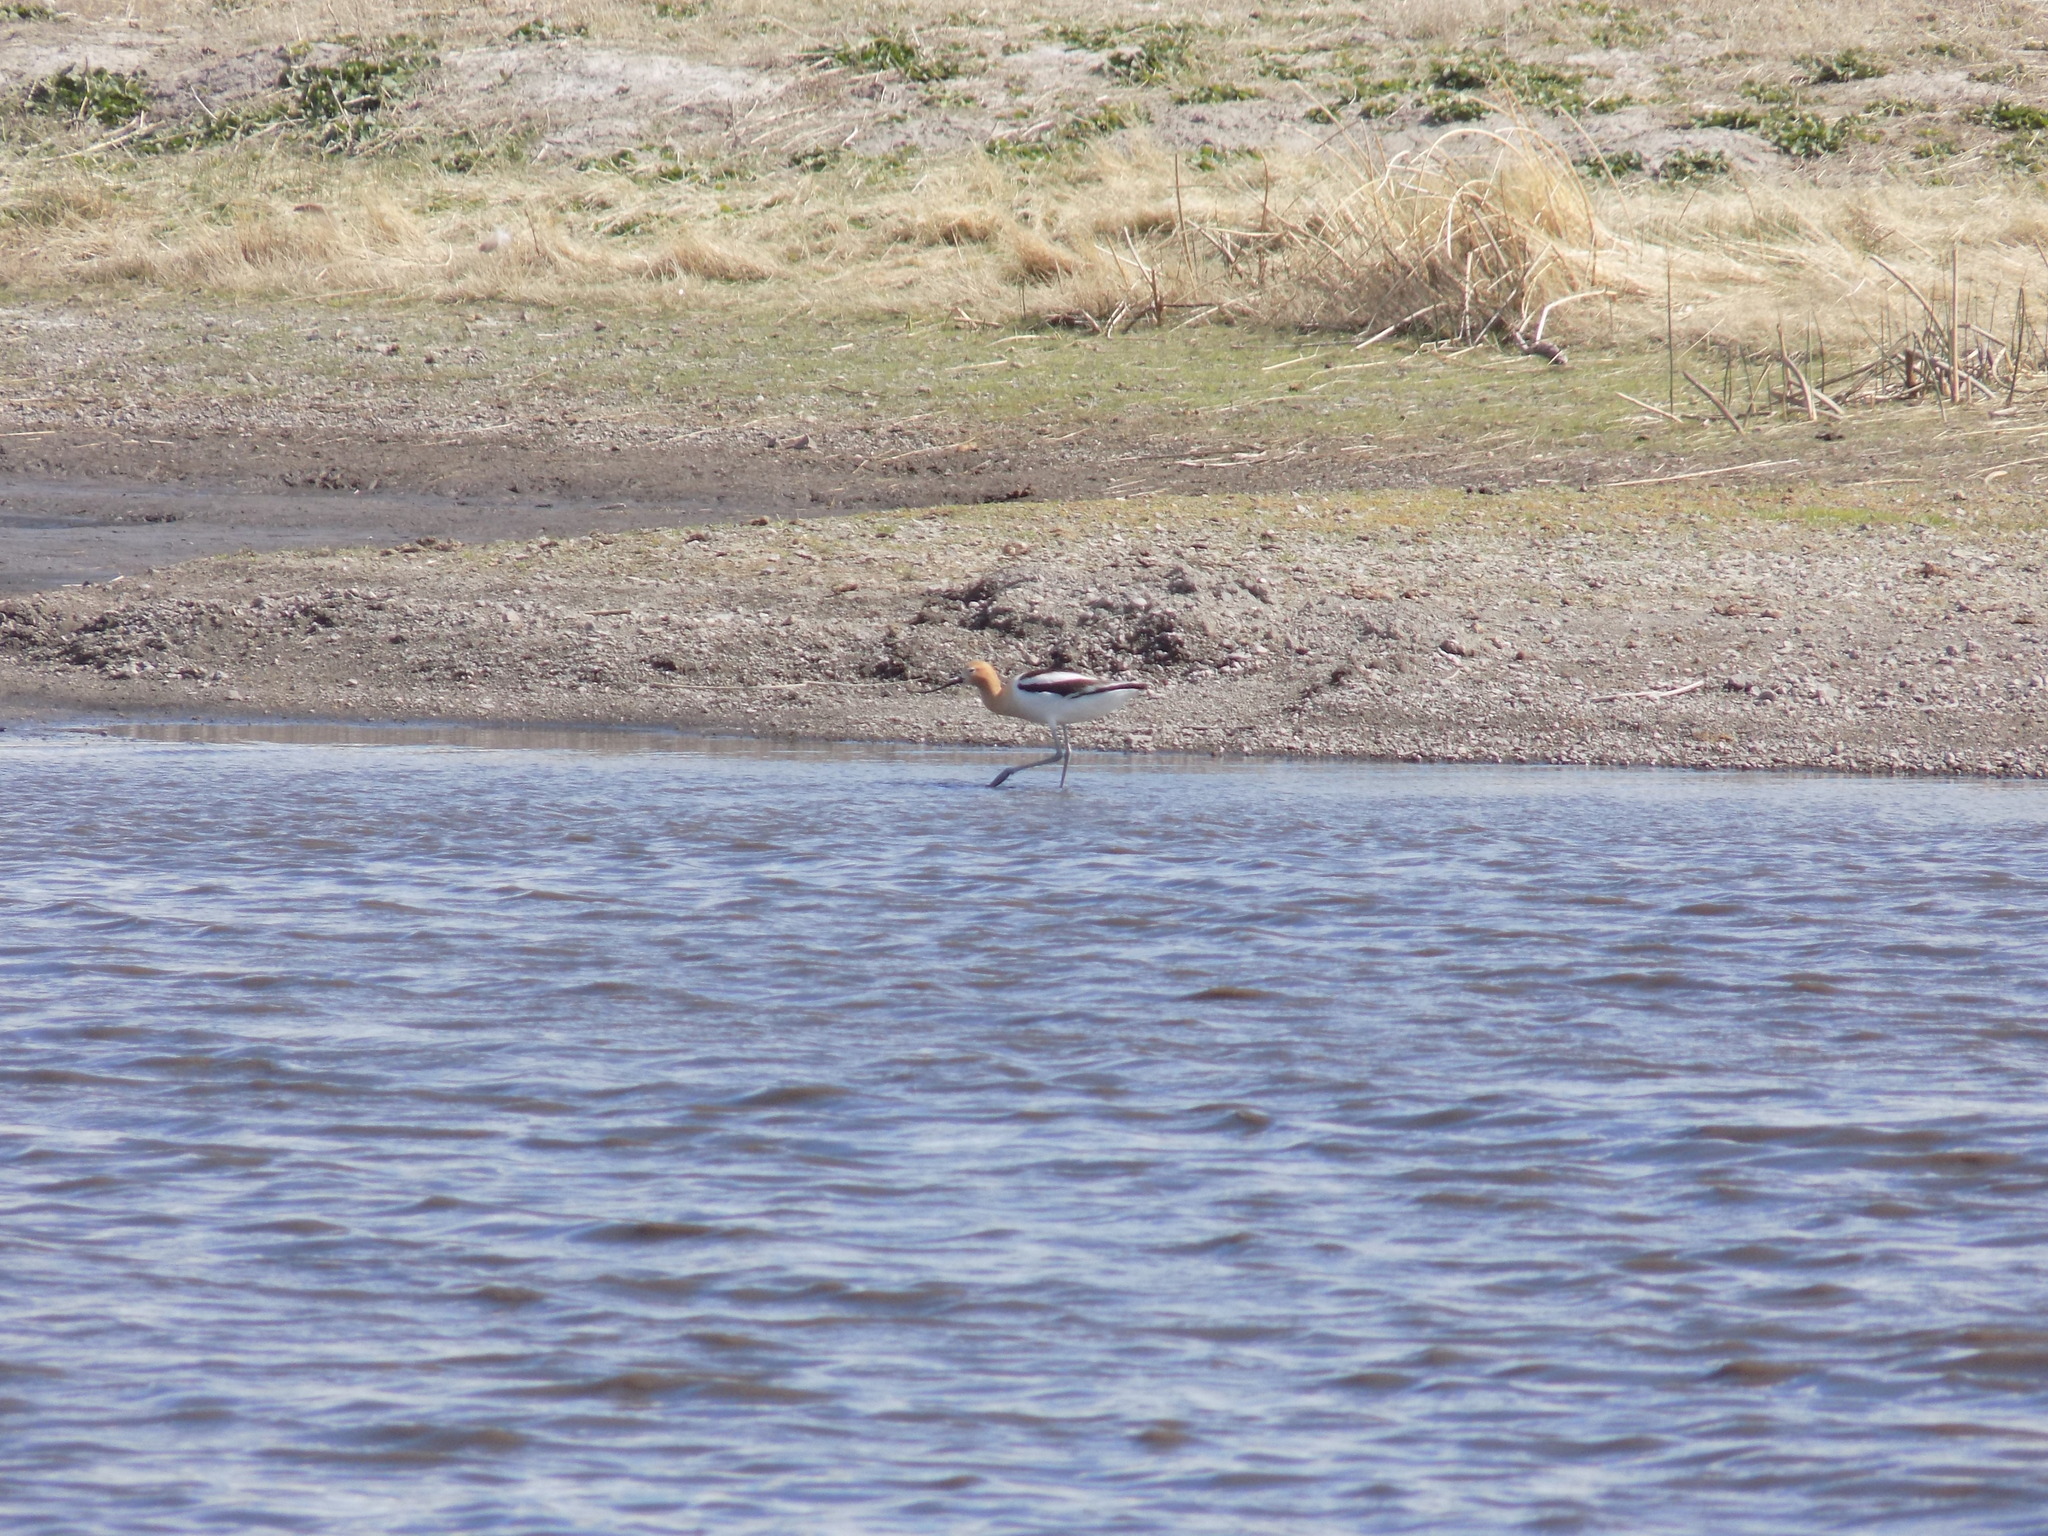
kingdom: Animalia
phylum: Chordata
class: Aves
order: Charadriiformes
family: Recurvirostridae
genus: Recurvirostra
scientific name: Recurvirostra americana
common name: American avocet
